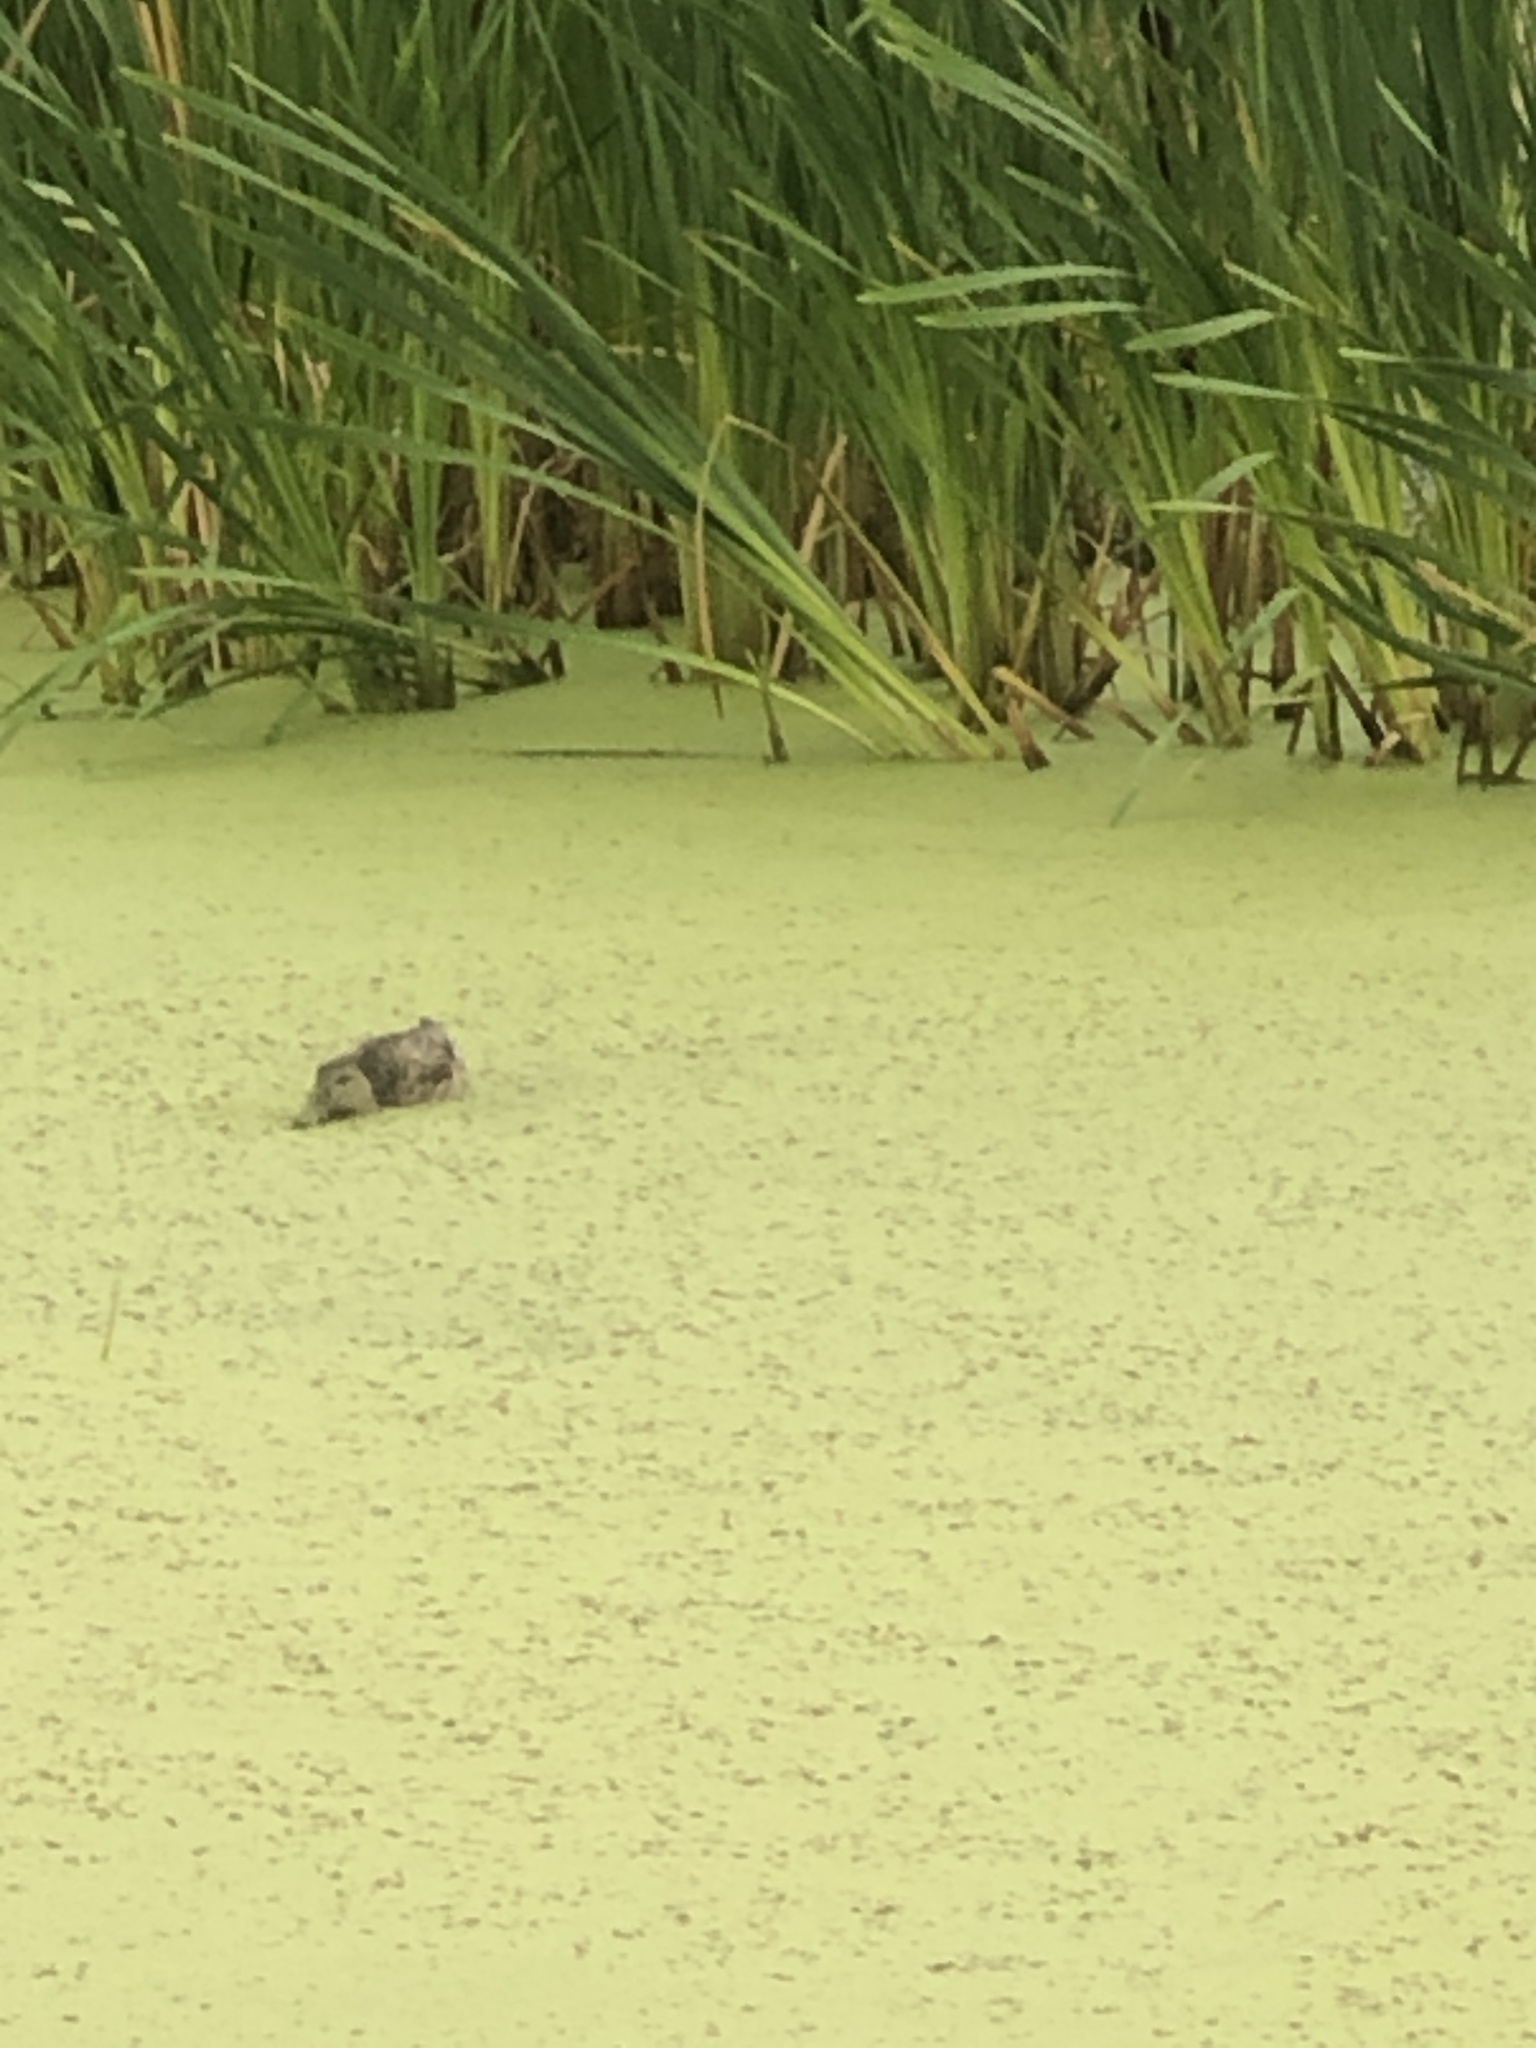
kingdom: Animalia
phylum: Chordata
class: Aves
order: Anseriformes
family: Anatidae
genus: Anas
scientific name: Anas platyrhynchos
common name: Mallard
